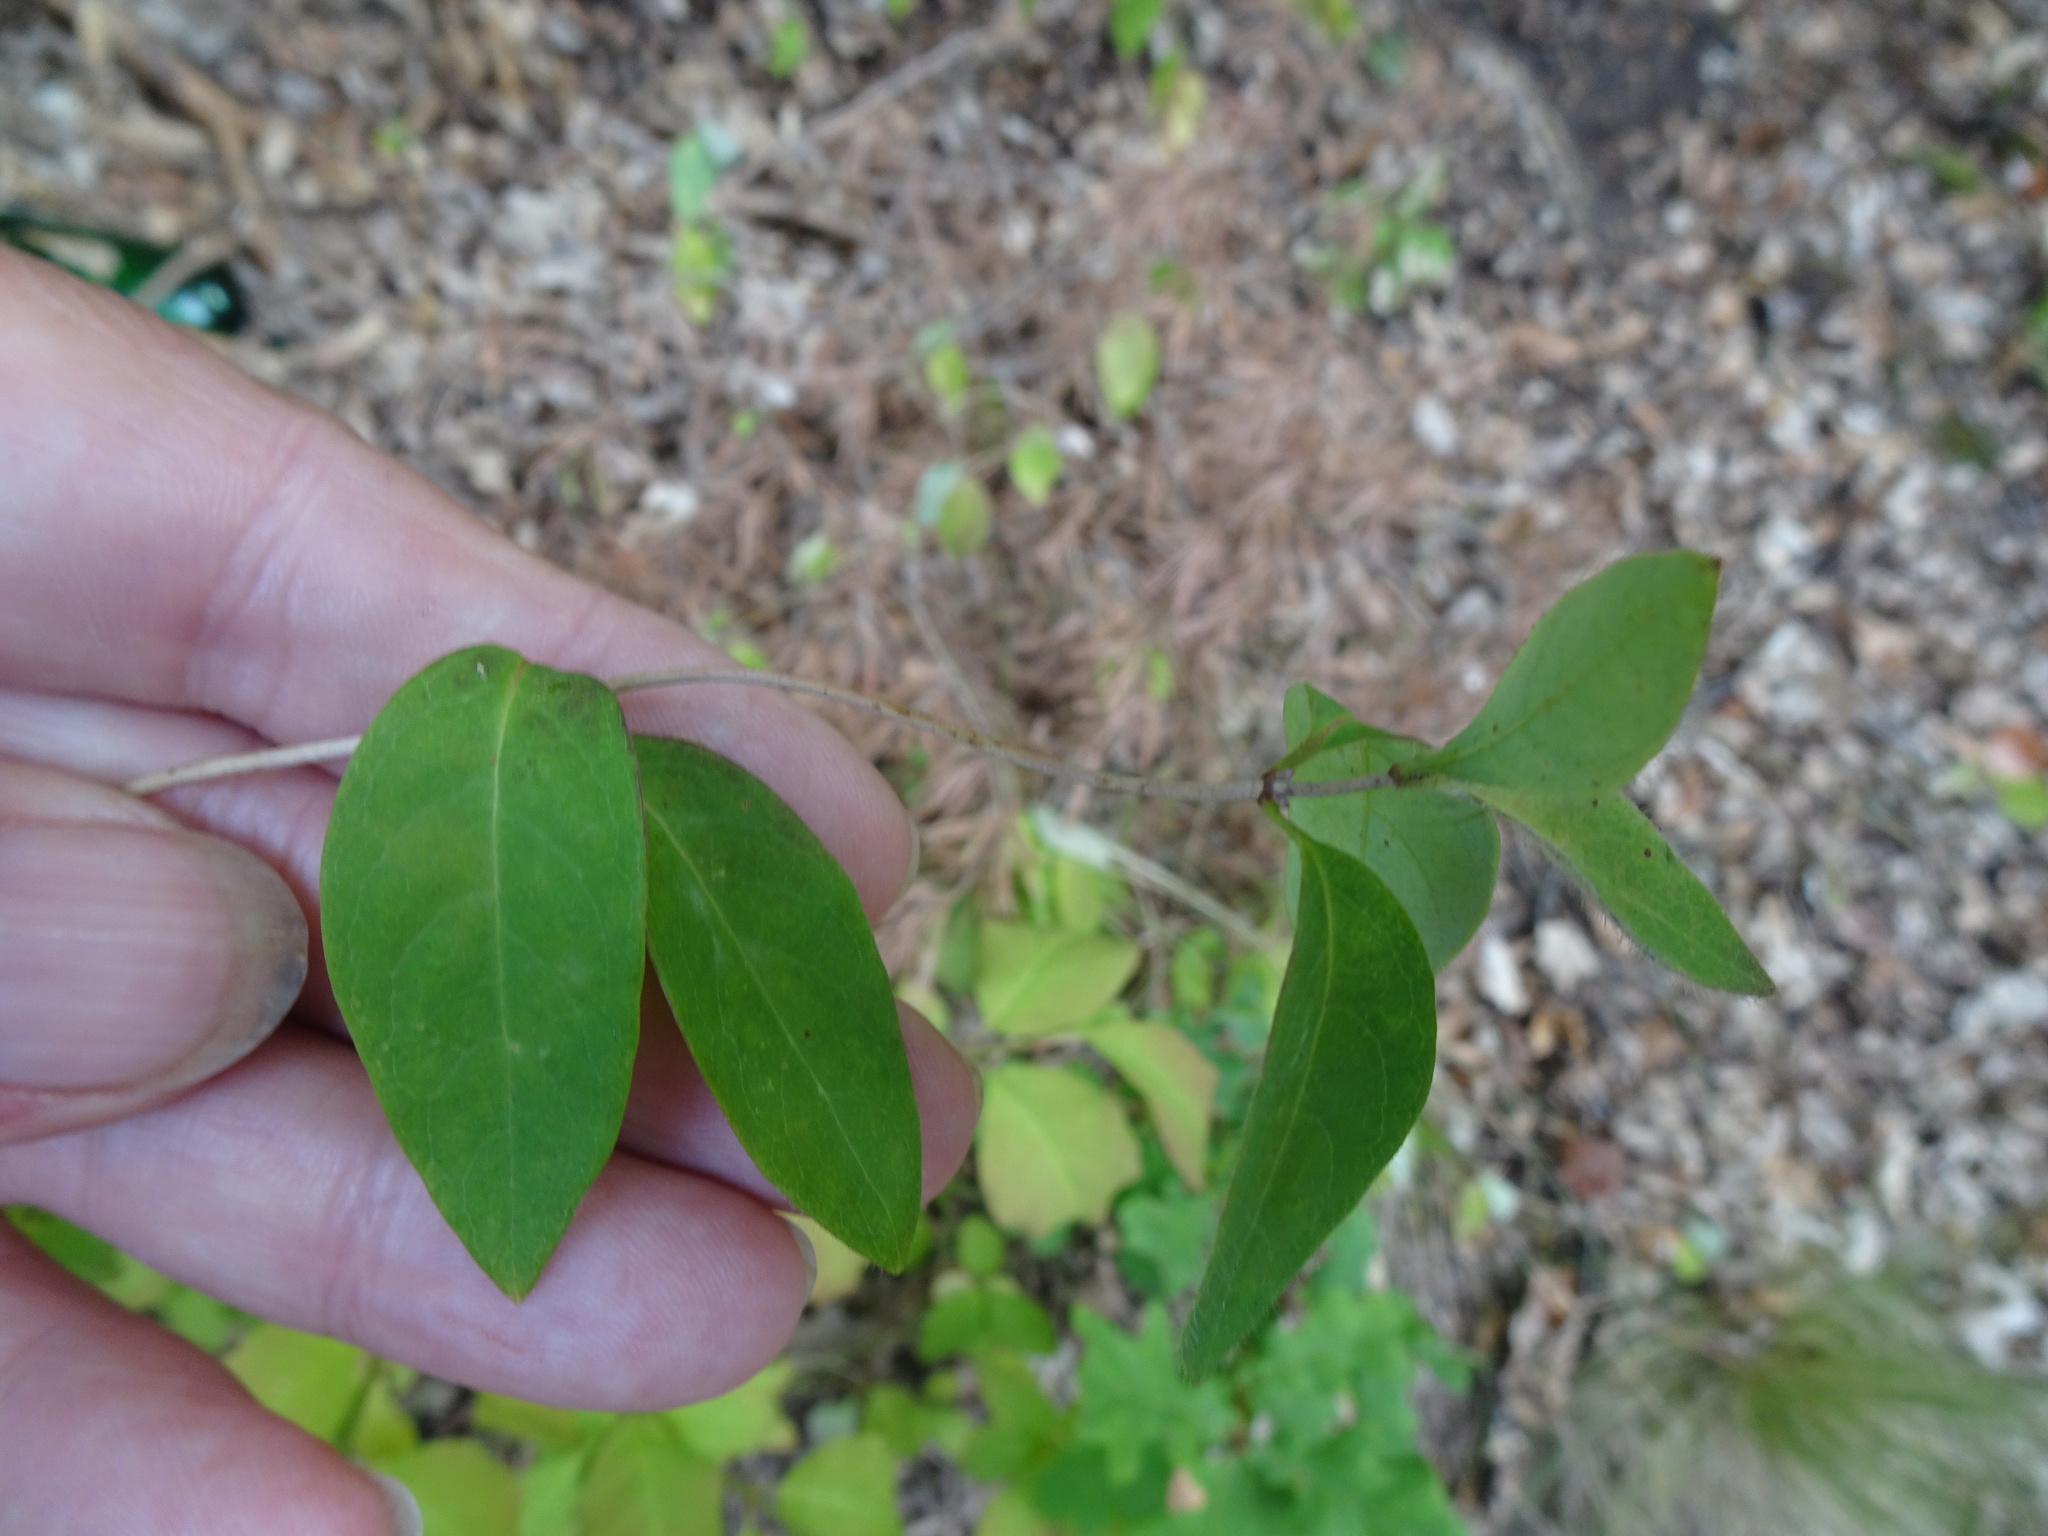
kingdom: Plantae
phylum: Tracheophyta
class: Magnoliopsida
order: Dipsacales
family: Caprifoliaceae
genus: Lonicera
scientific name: Lonicera periclymenum
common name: European honeysuckle
